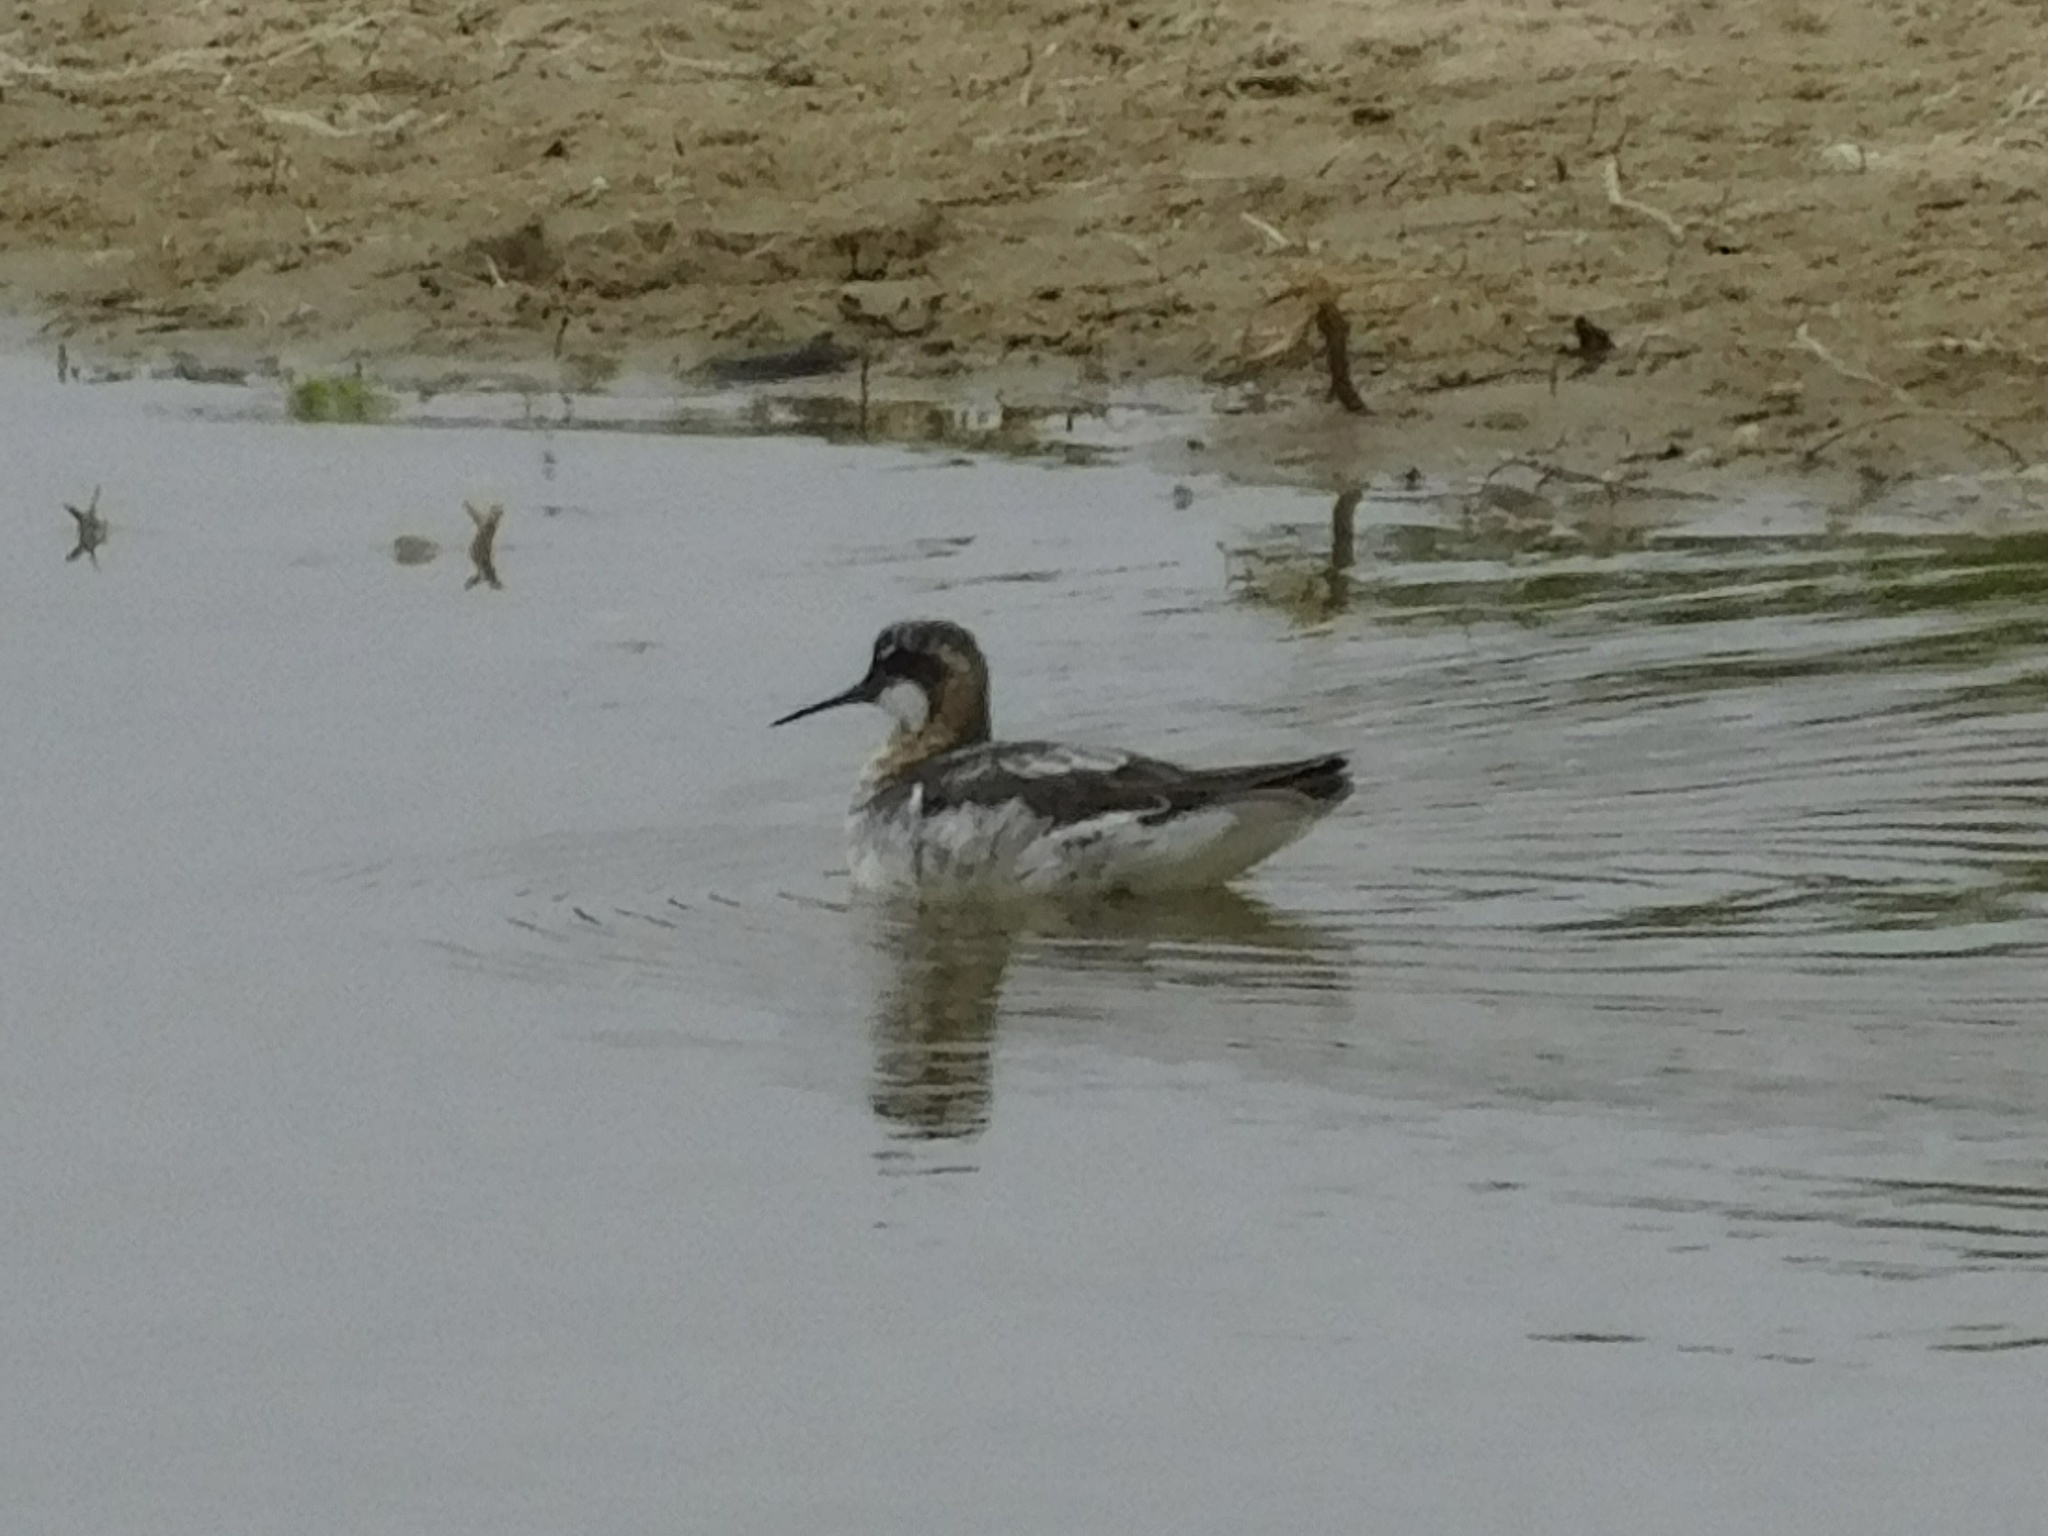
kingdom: Animalia
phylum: Chordata
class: Aves
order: Charadriiformes
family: Scolopacidae
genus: Phalaropus
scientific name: Phalaropus lobatus
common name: Red-necked phalarope
